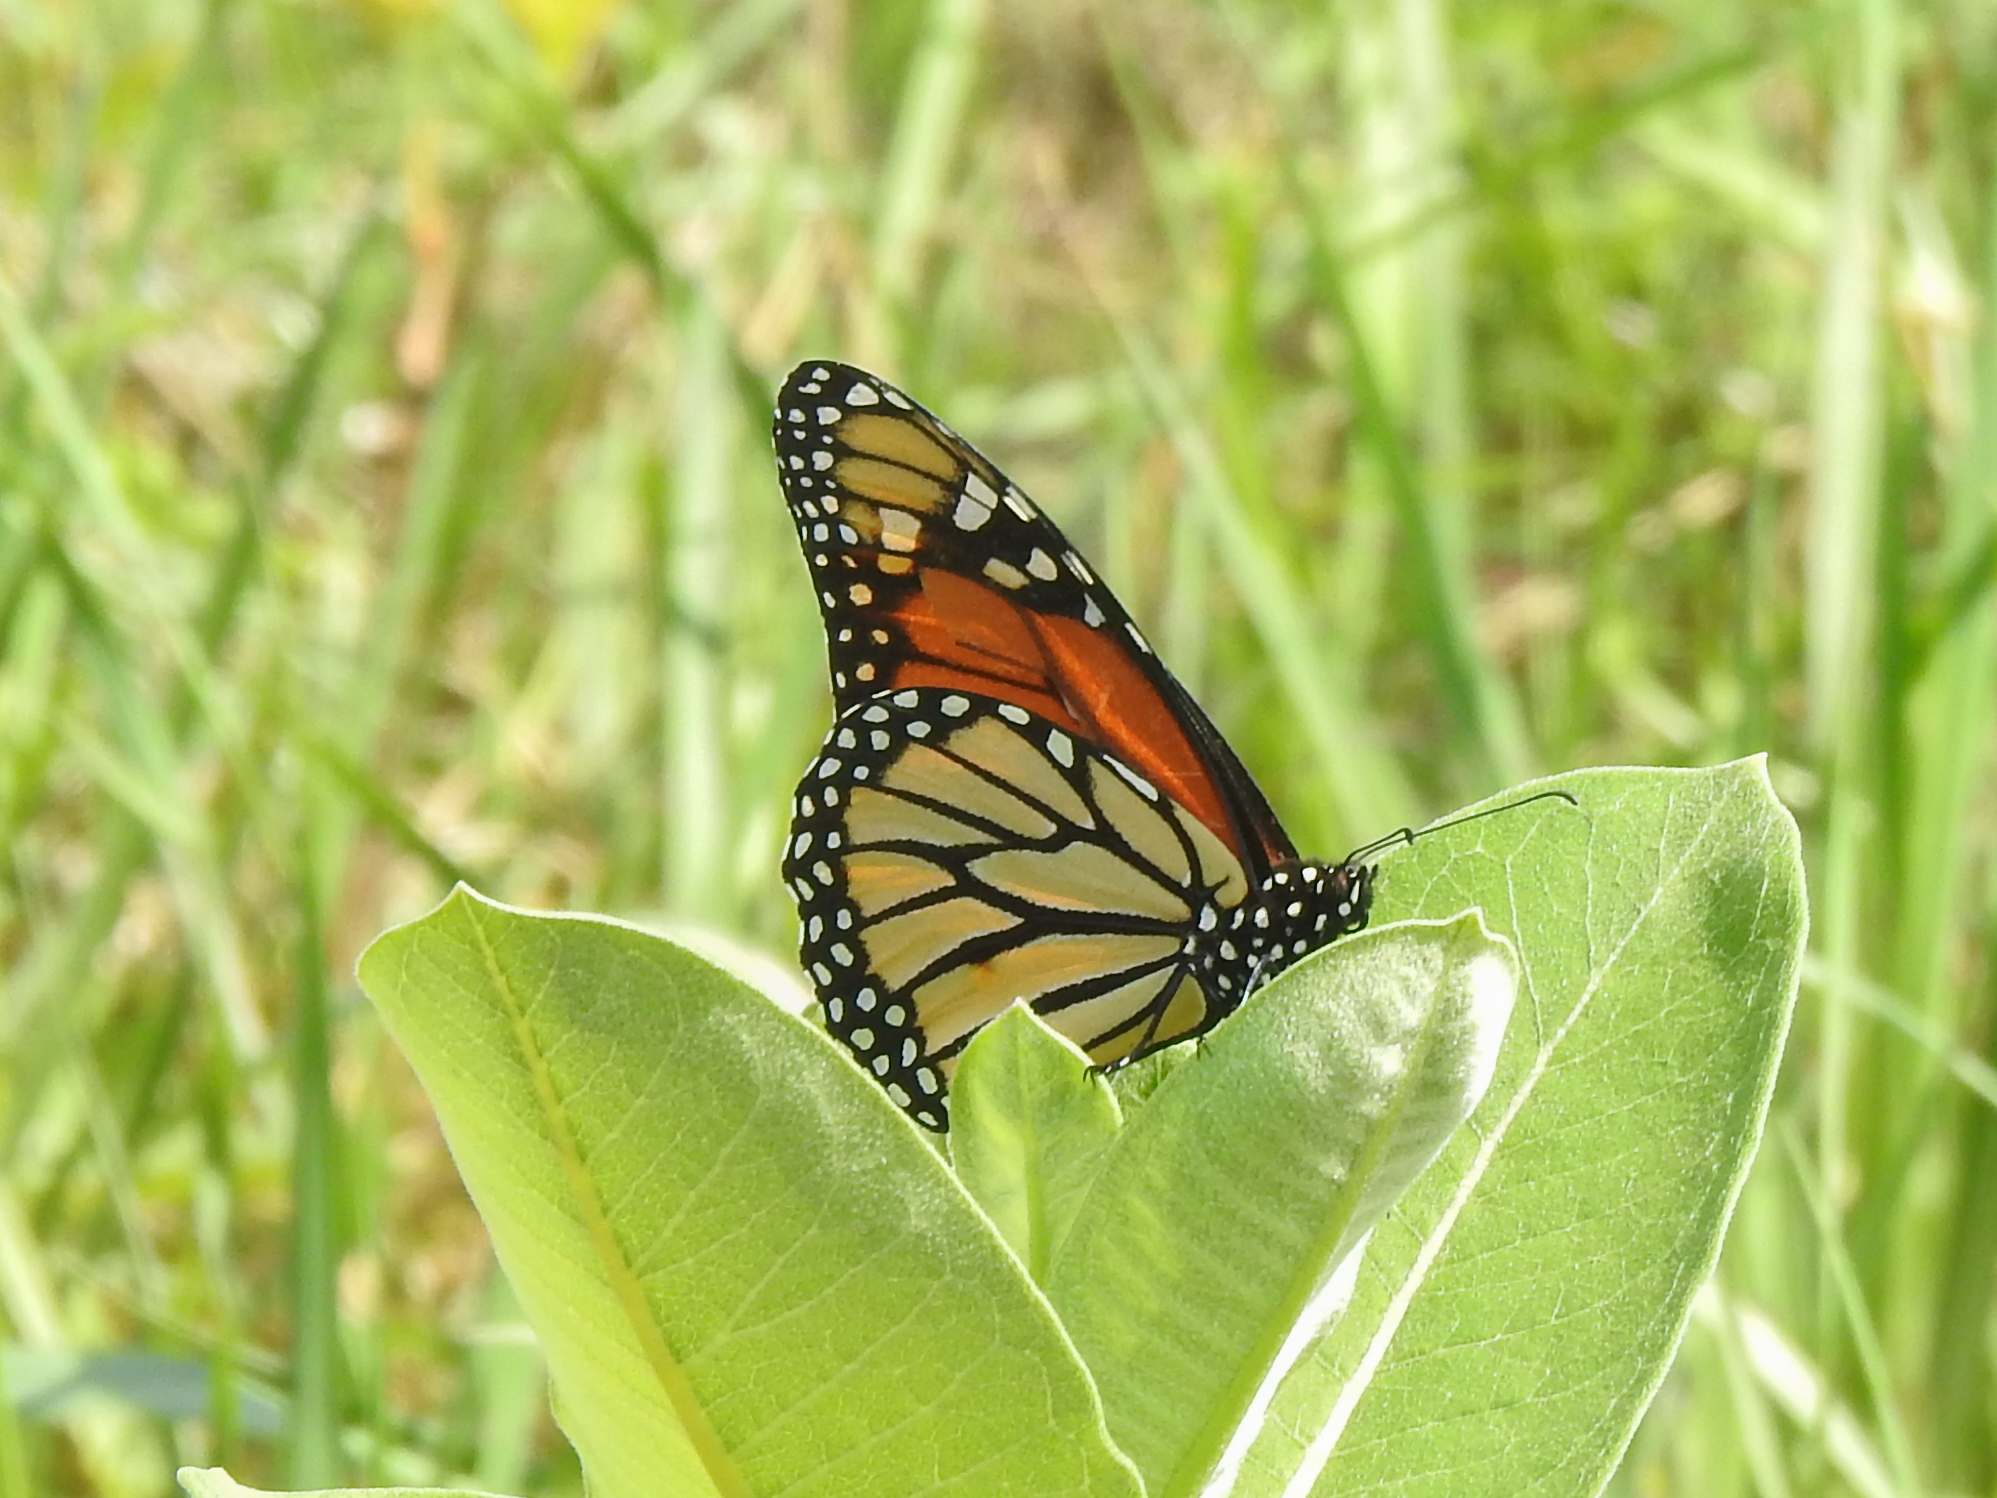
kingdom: Animalia
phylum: Arthropoda
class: Insecta
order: Lepidoptera
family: Nymphalidae
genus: Danaus
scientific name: Danaus plexippus
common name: Monarch
